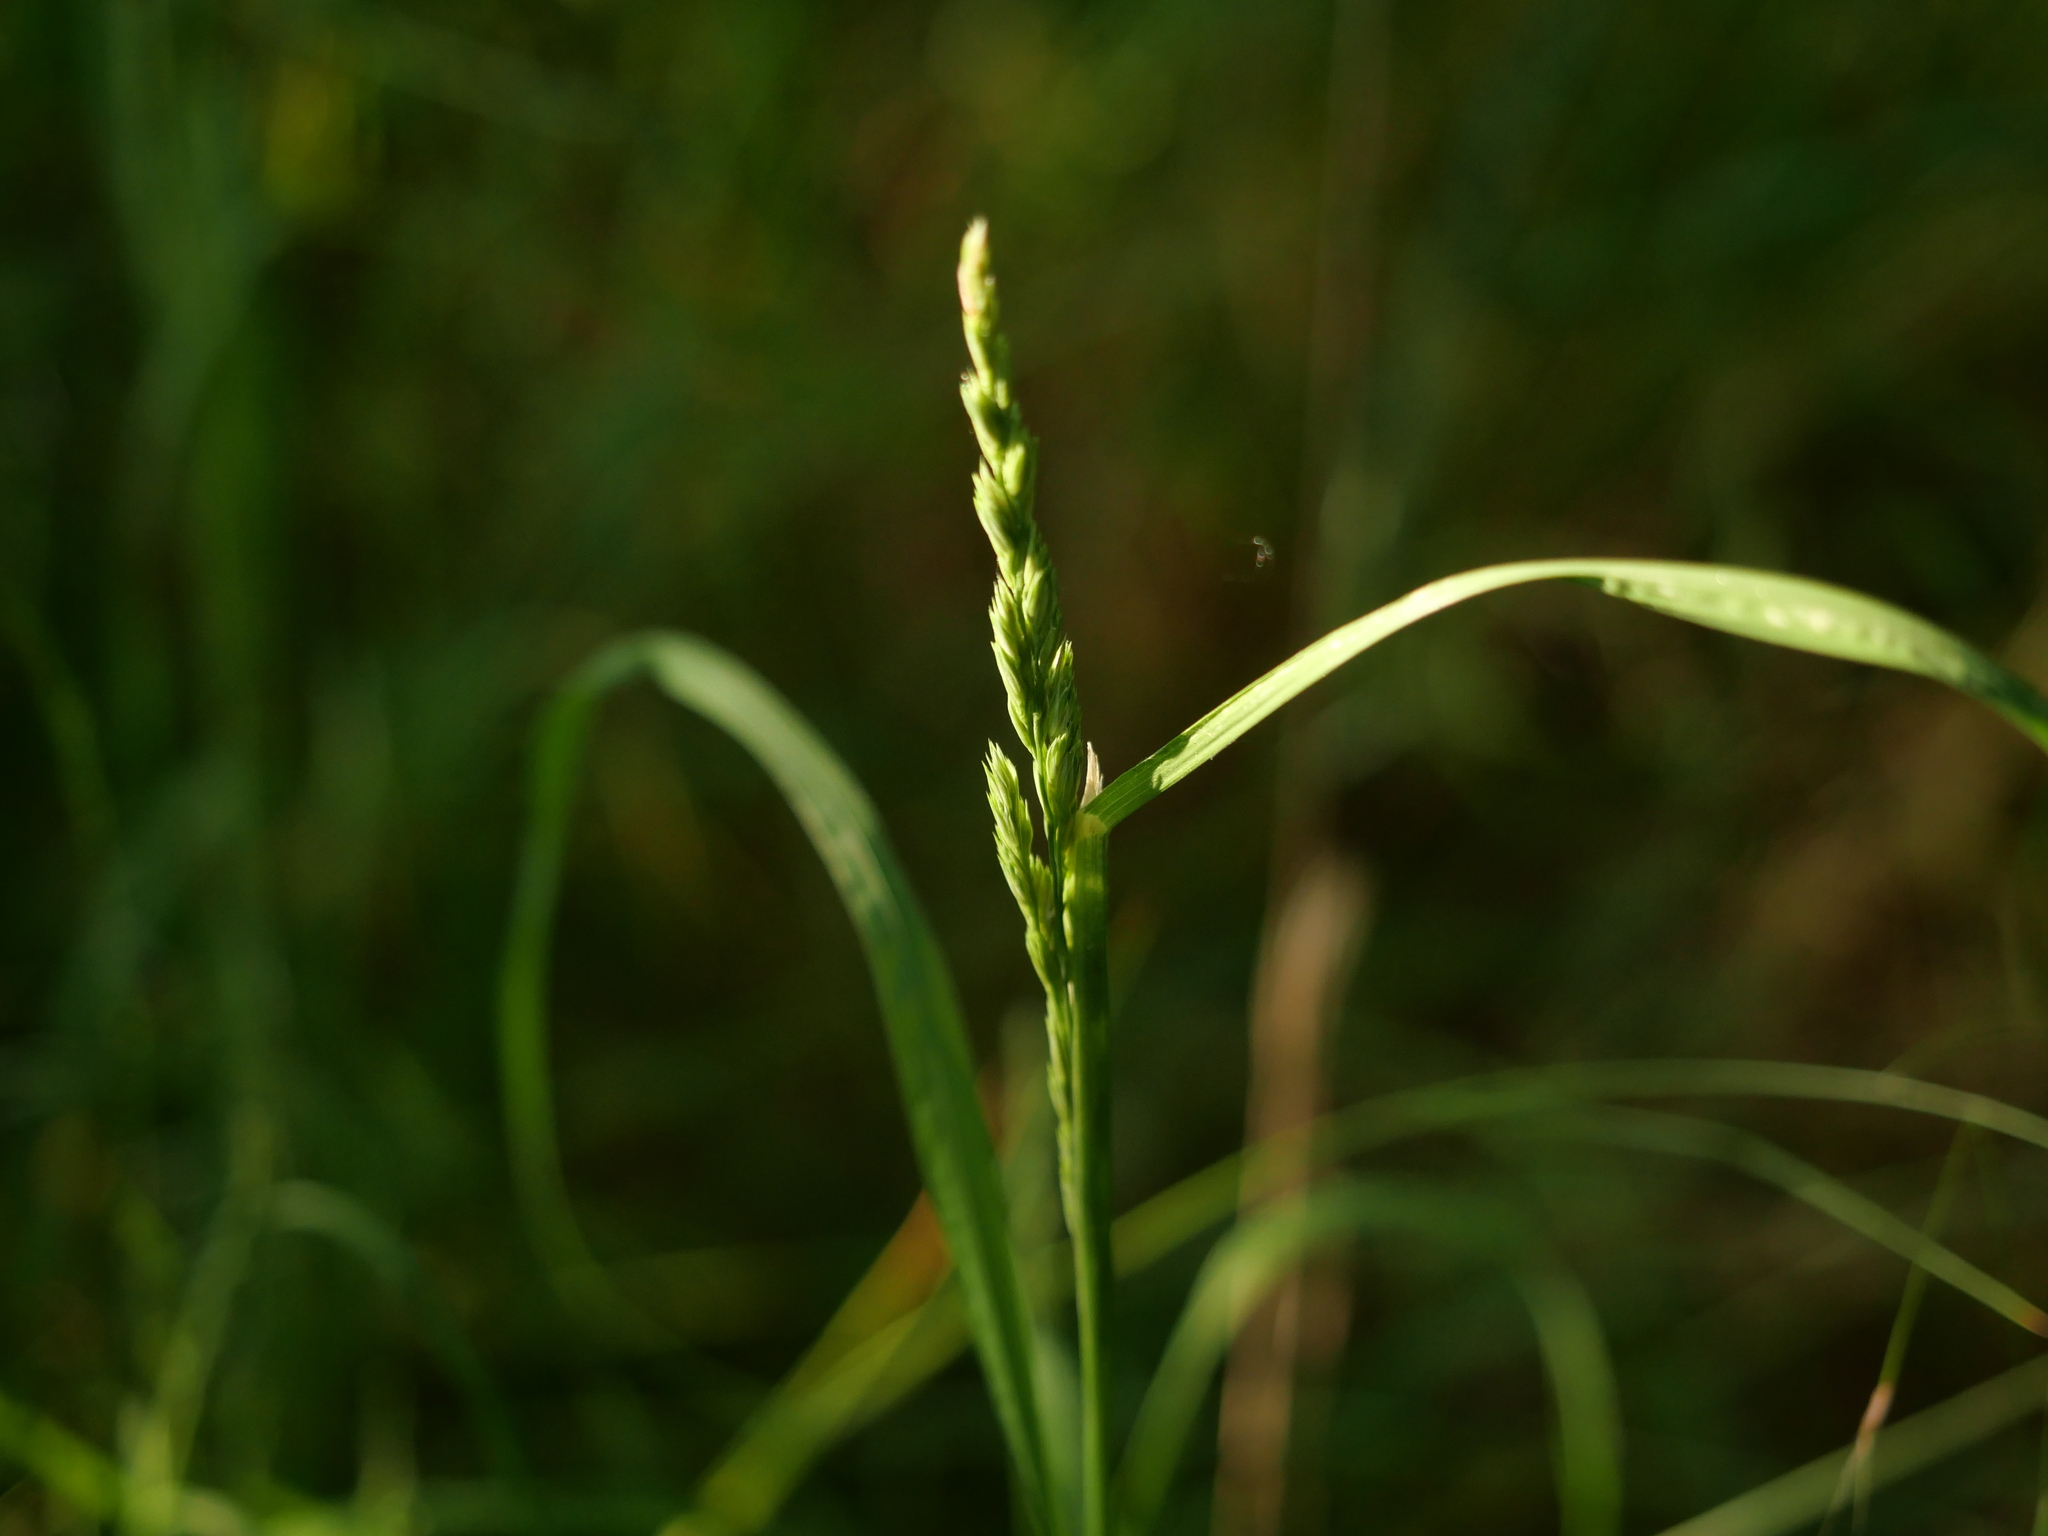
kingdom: Plantae
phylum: Tracheophyta
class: Liliopsida
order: Poales
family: Poaceae
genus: Dactylis
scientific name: Dactylis glomerata
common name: Orchardgrass
